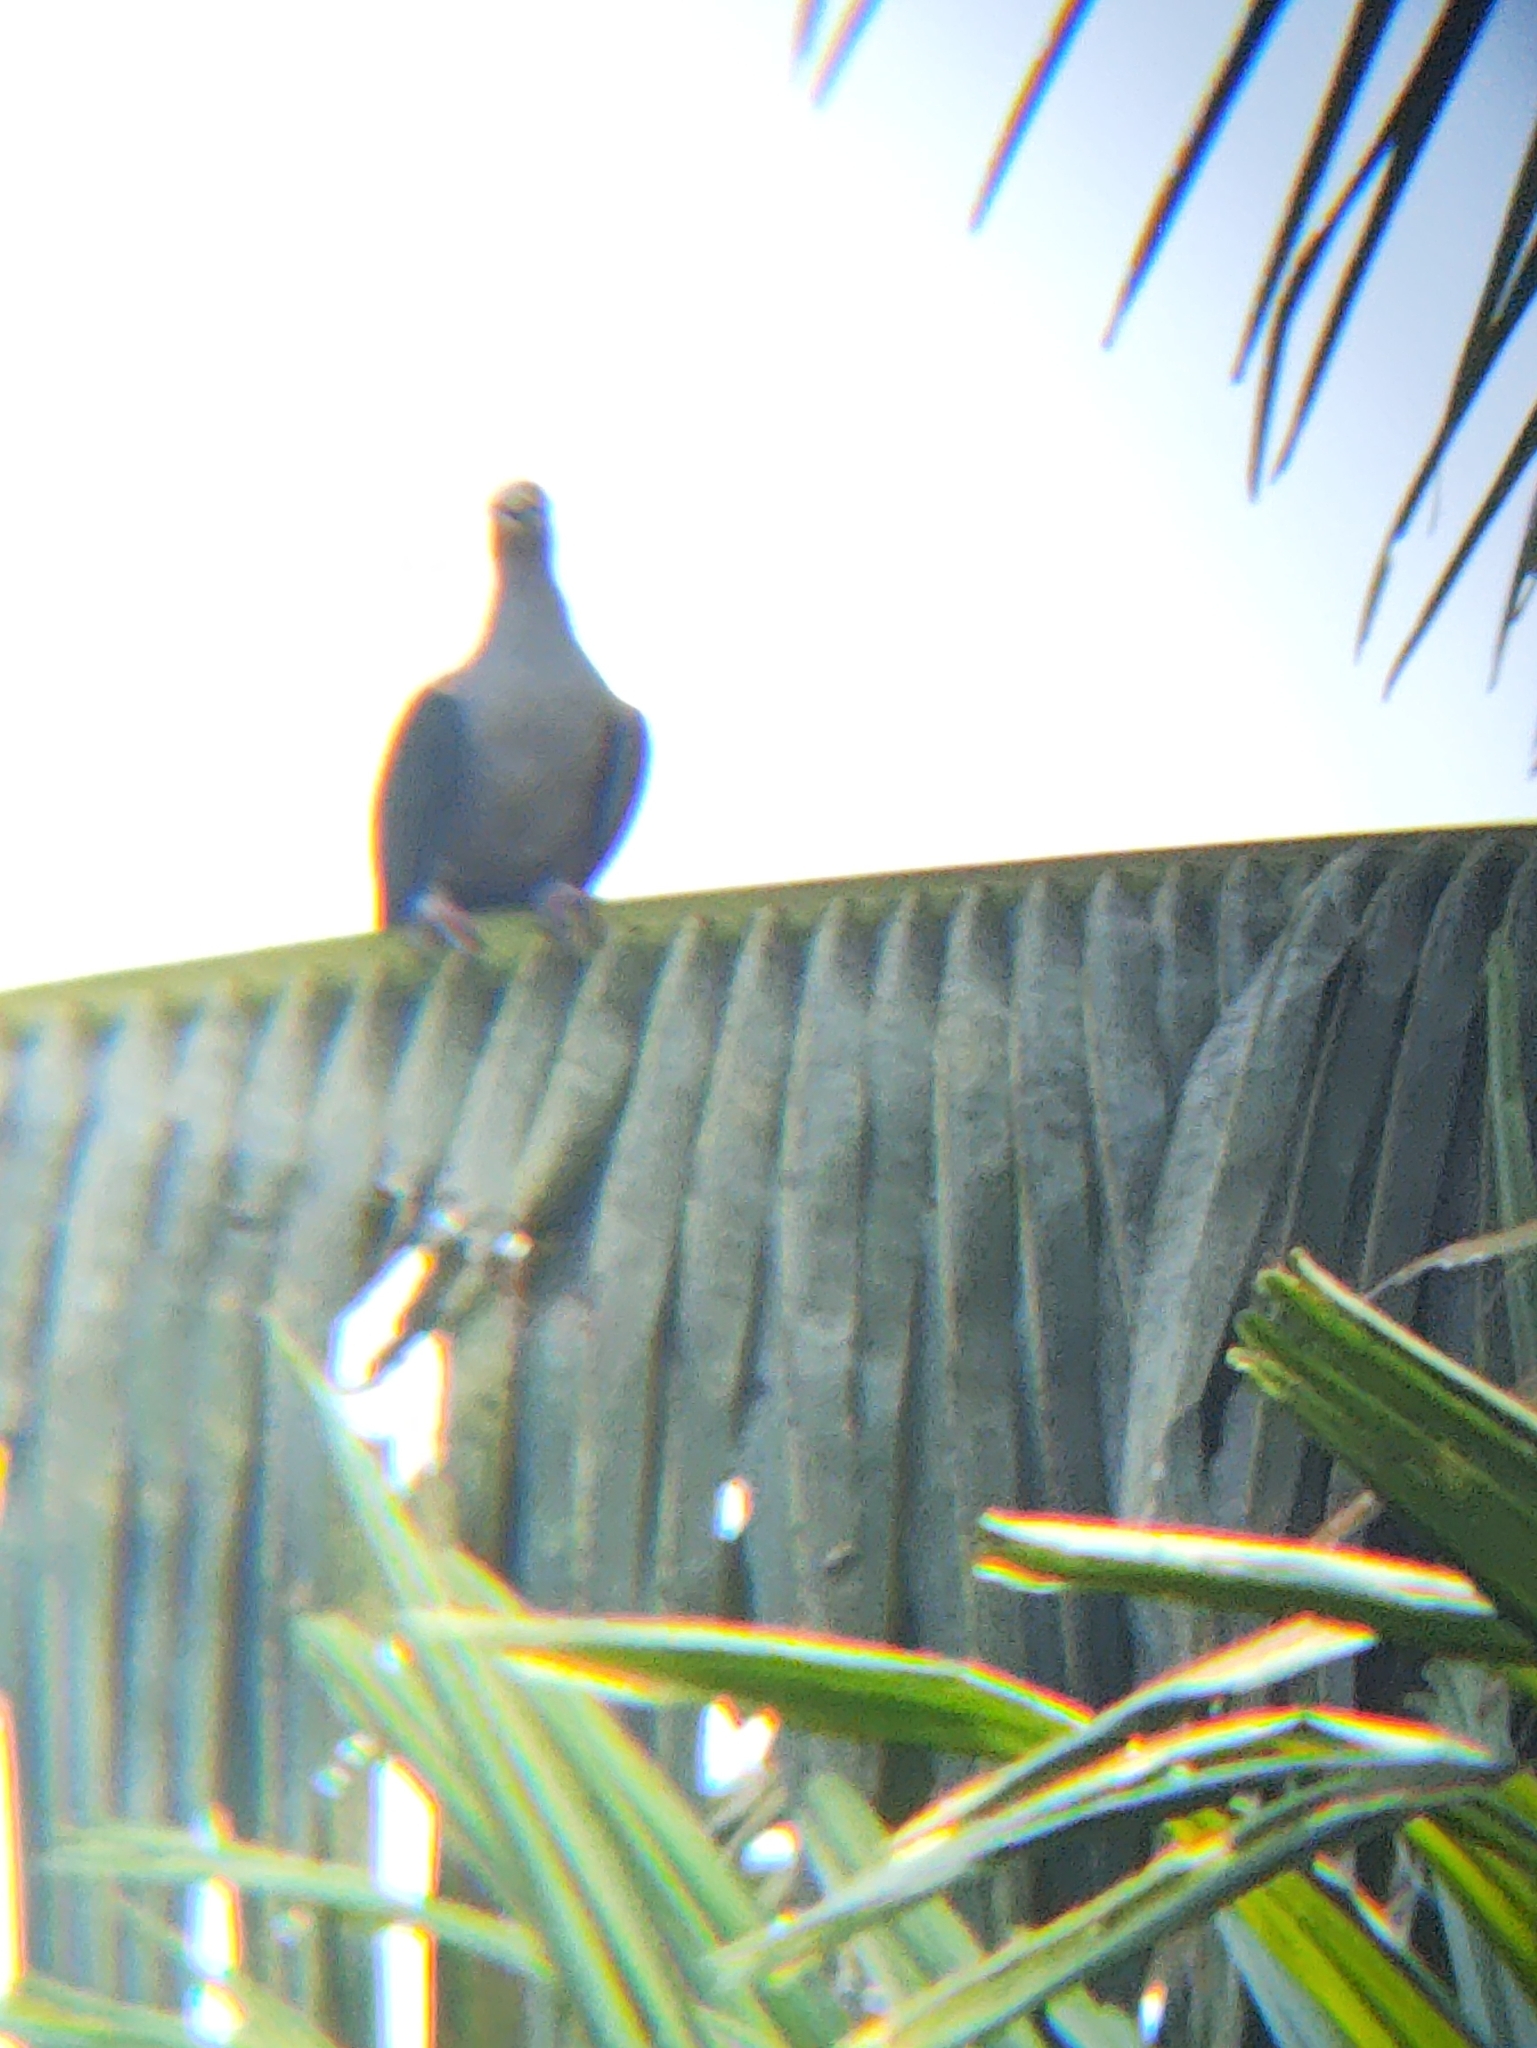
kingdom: Animalia
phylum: Chordata
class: Aves
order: Columbiformes
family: Columbidae
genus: Ducula
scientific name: Ducula aenea
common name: Green imperial pigeon
